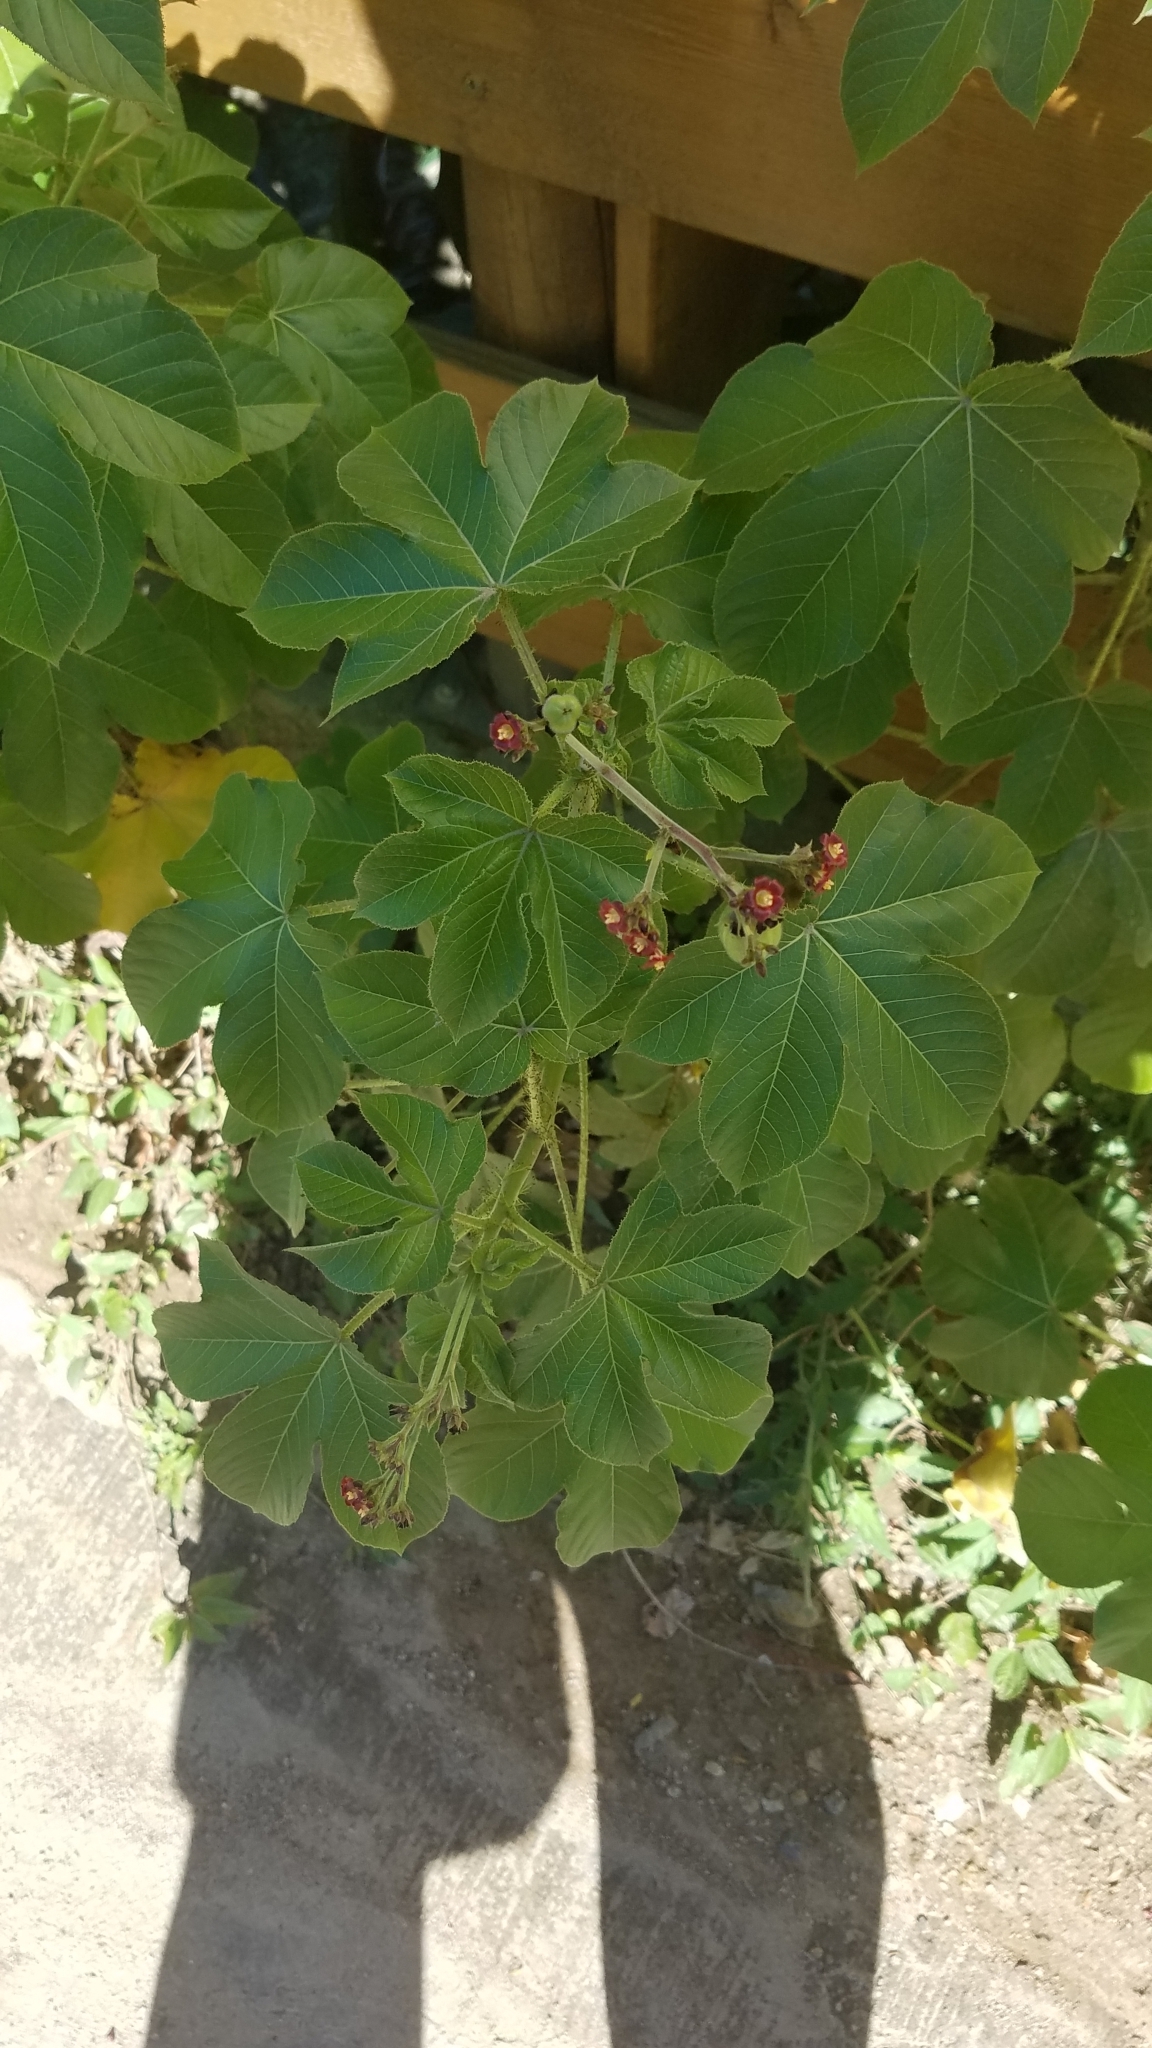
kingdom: Plantae
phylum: Tracheophyta
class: Magnoliopsida
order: Malpighiales
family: Euphorbiaceae
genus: Jatropha
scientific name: Jatropha gossypiifolia
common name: Bellyache bush
